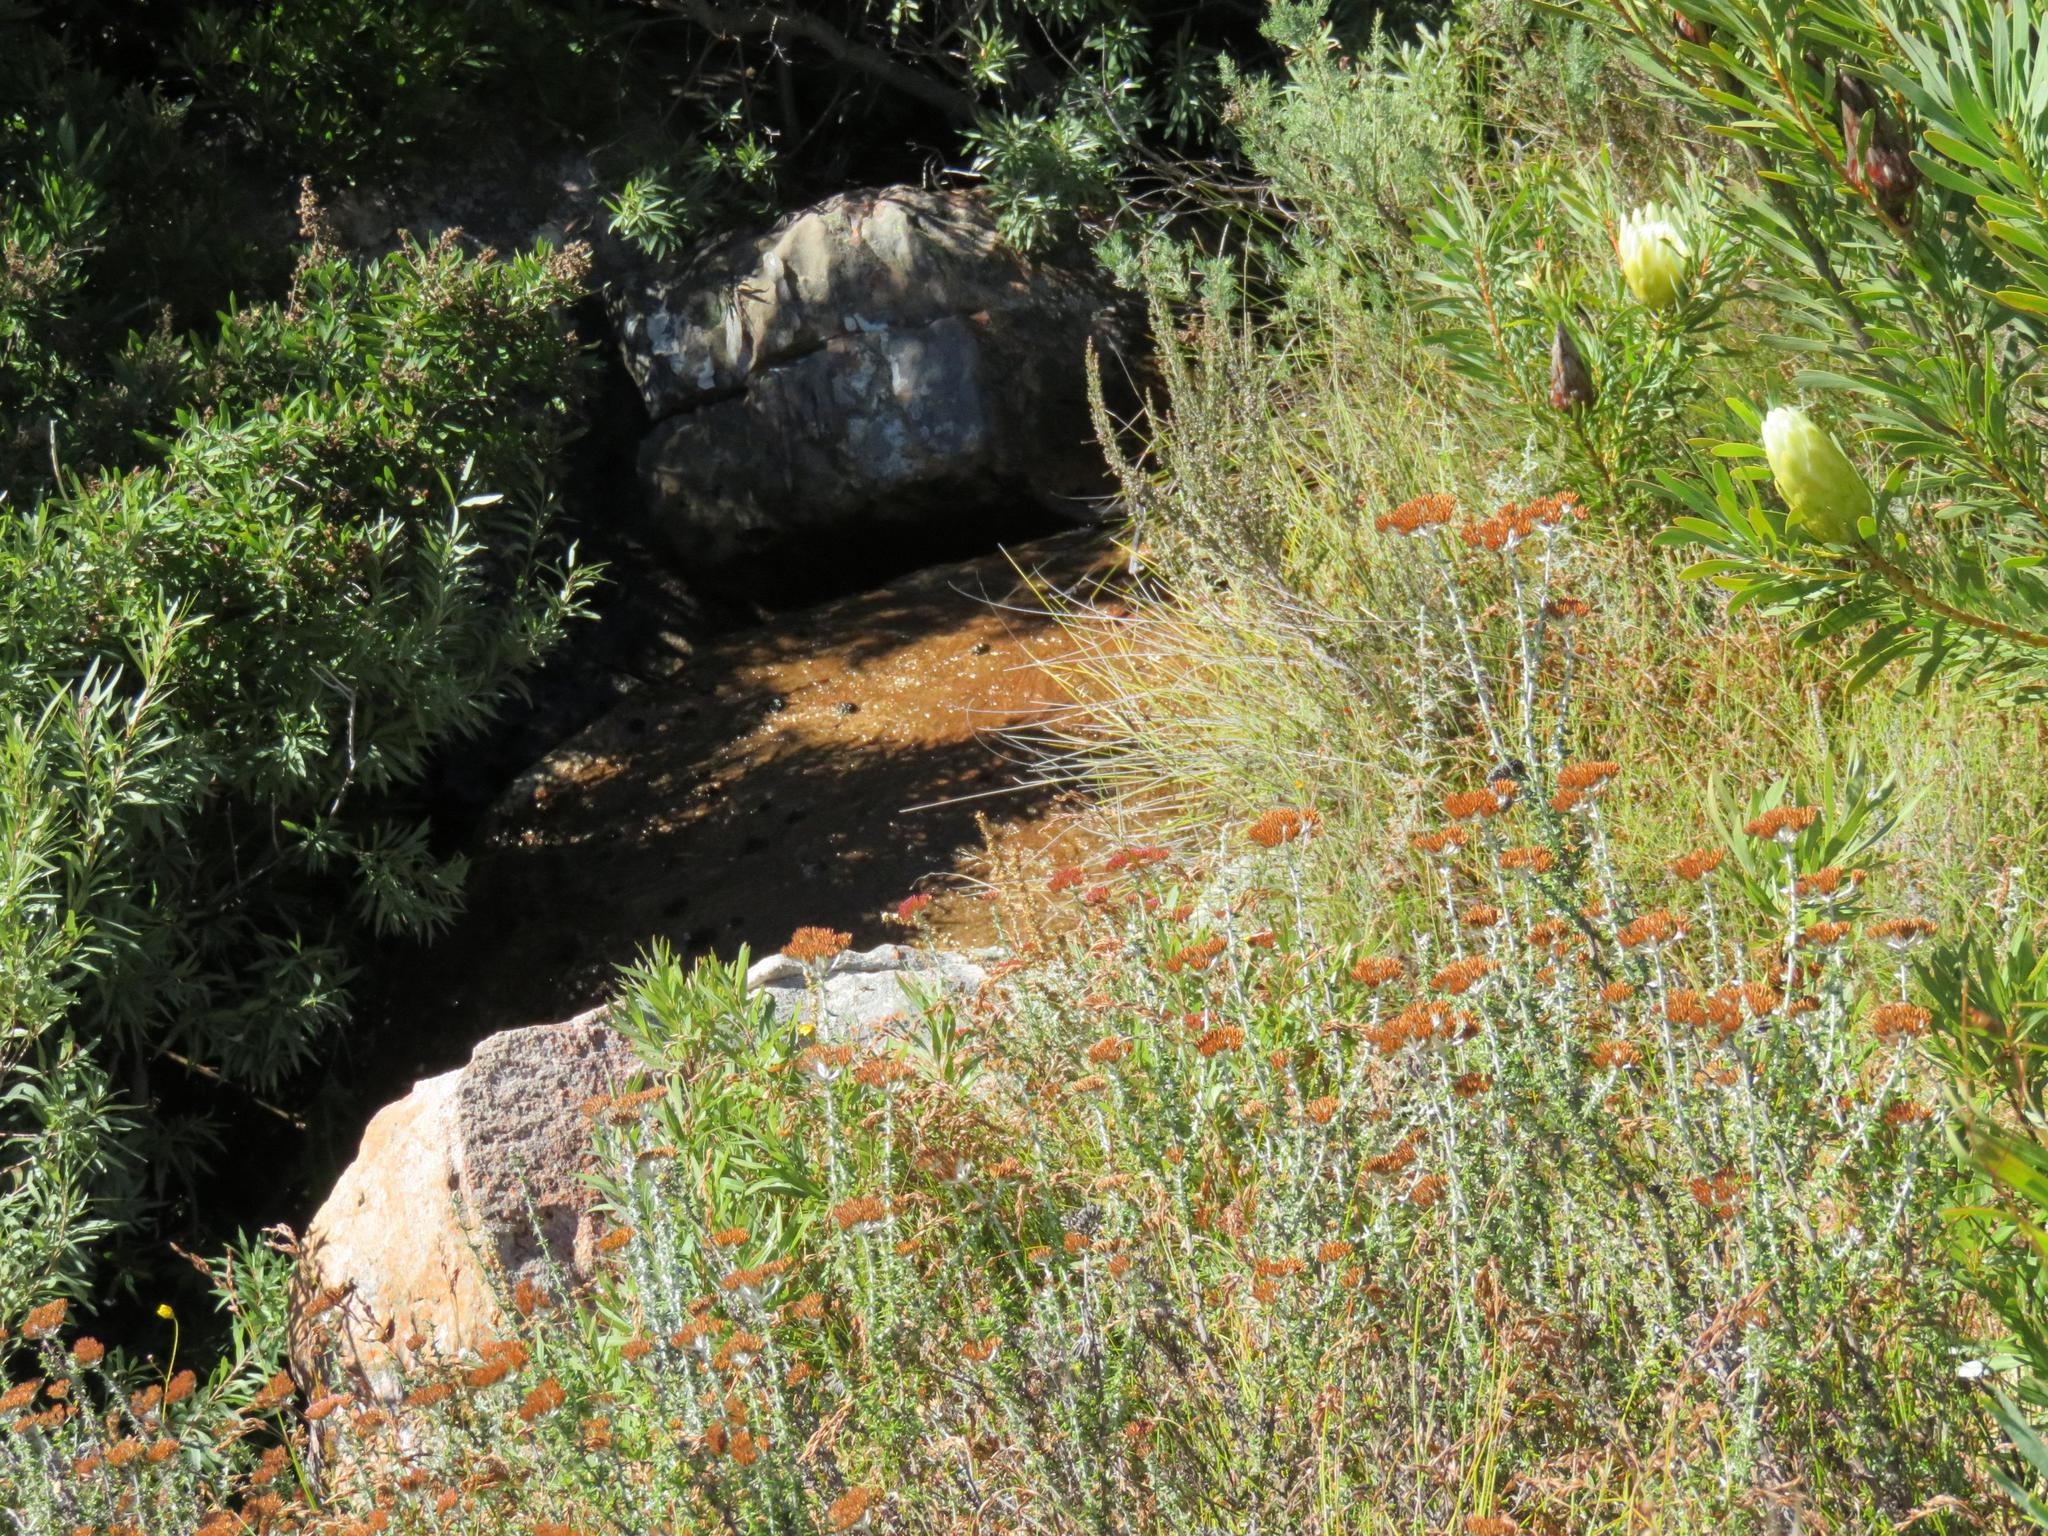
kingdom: Animalia
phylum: Chordata
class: Aves
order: Passeriformes
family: Promeropidae
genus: Promerops
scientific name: Promerops cafer
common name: Cape sugarbird
